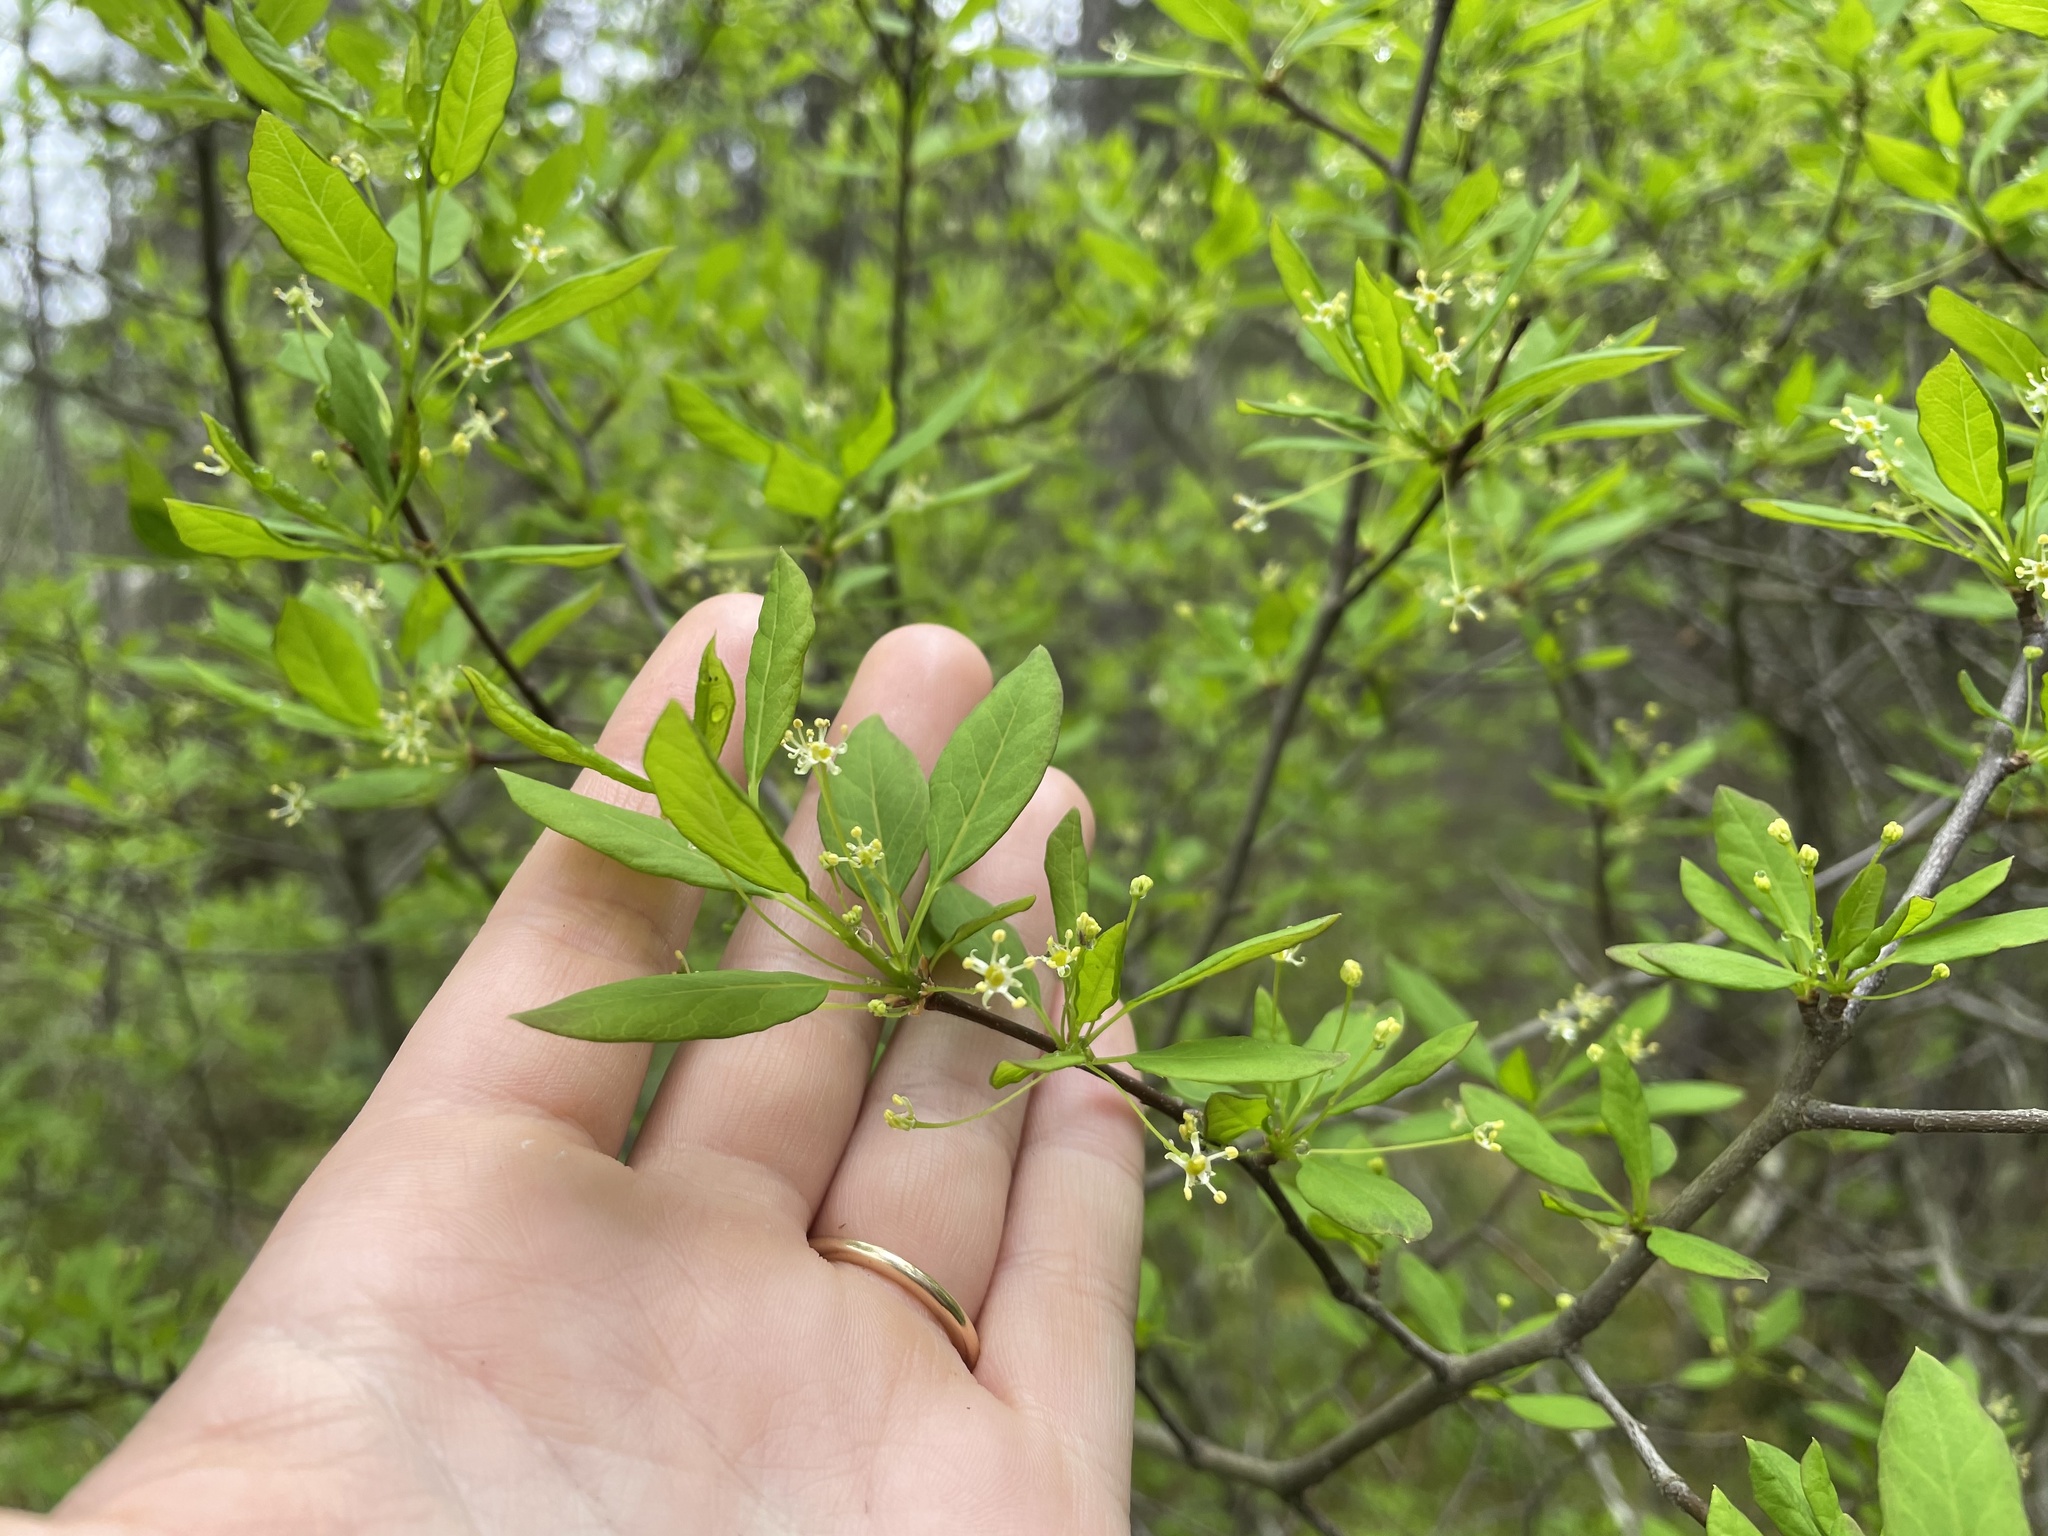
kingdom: Plantae
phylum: Tracheophyta
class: Magnoliopsida
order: Aquifoliales
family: Aquifoliaceae
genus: Ilex
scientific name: Ilex mucronata
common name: Catberry
